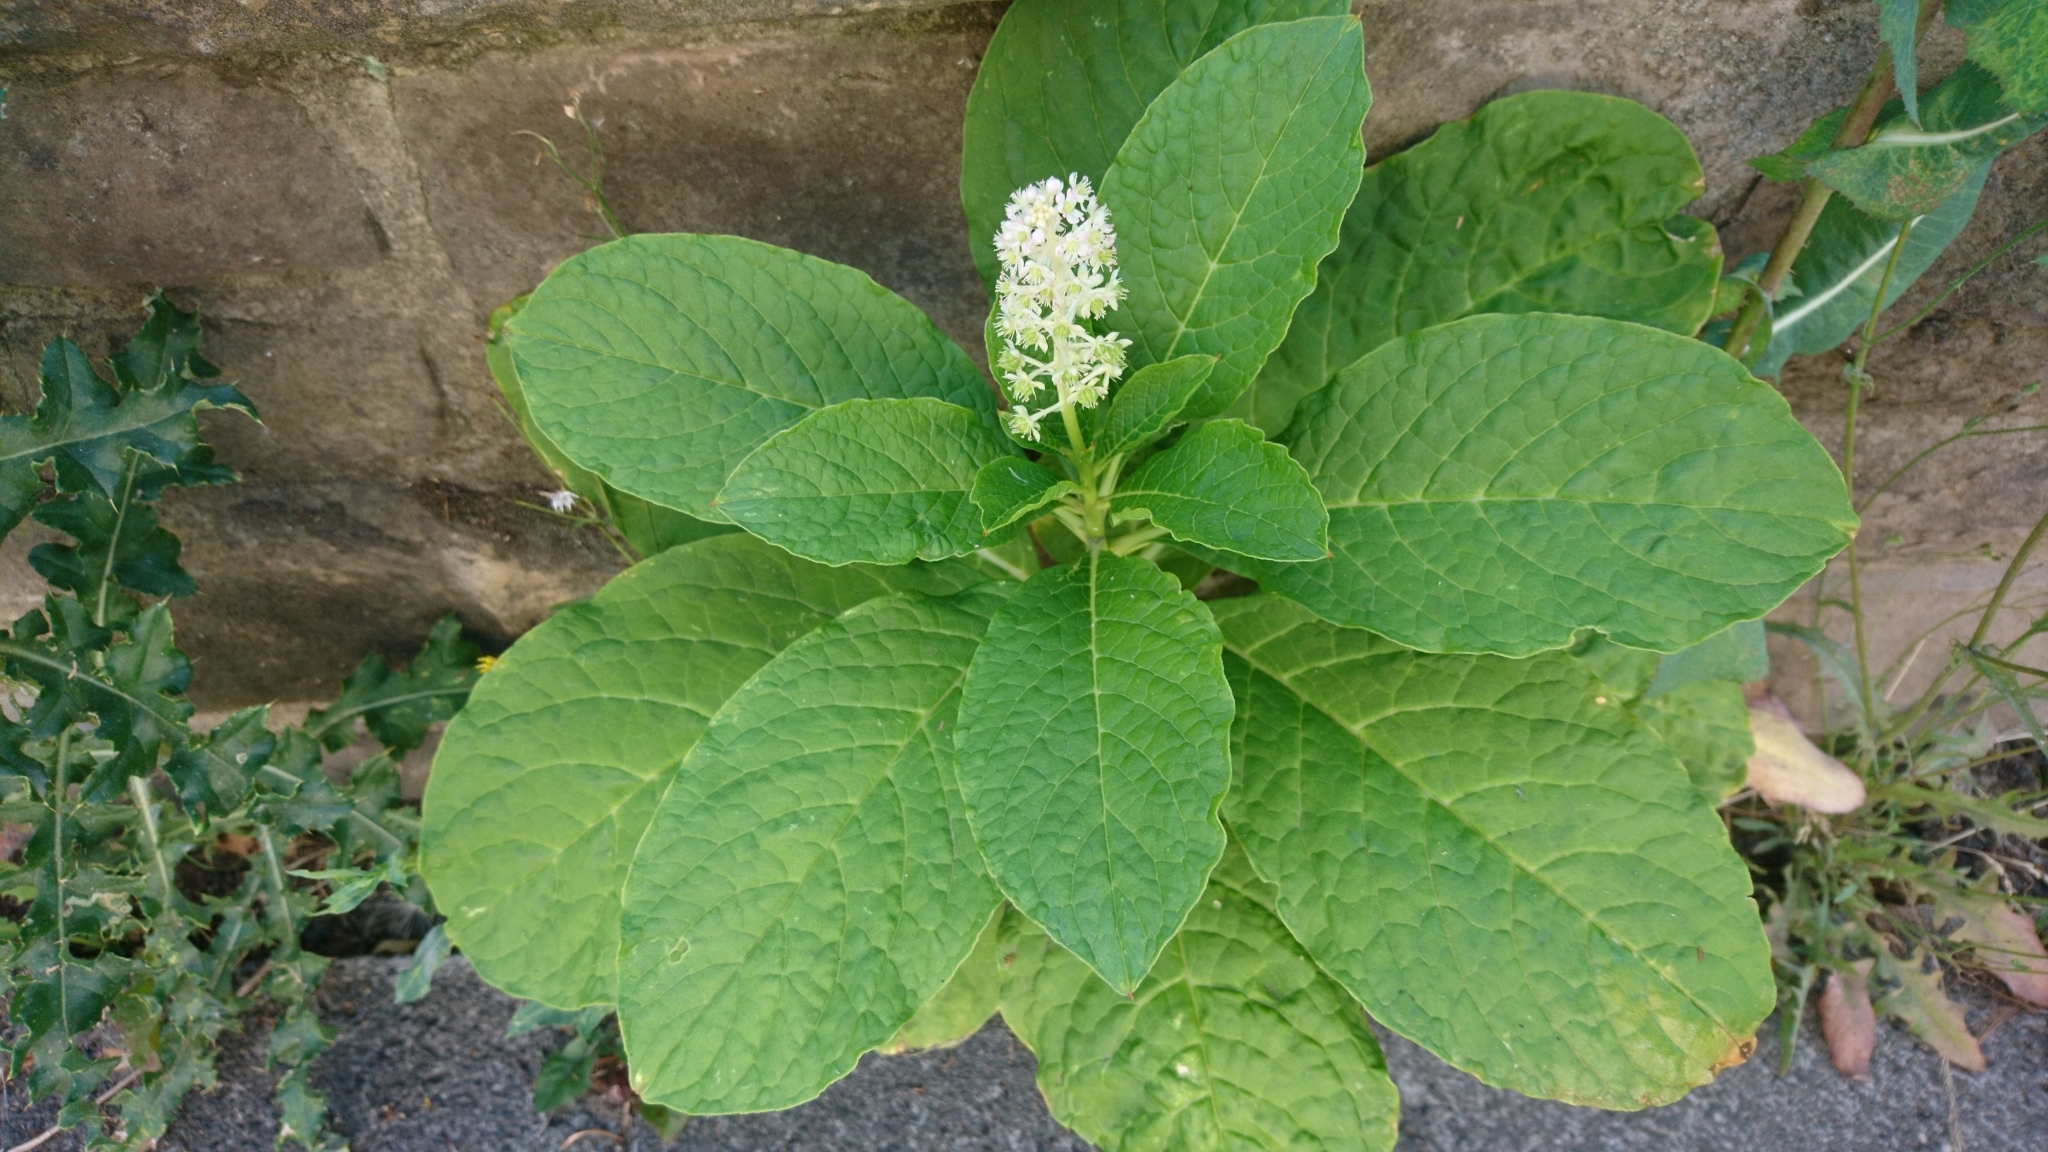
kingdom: Plantae
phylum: Tracheophyta
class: Magnoliopsida
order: Caryophyllales
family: Phytolaccaceae
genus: Phytolacca
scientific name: Phytolacca acinosa
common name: Indian pokeweed
